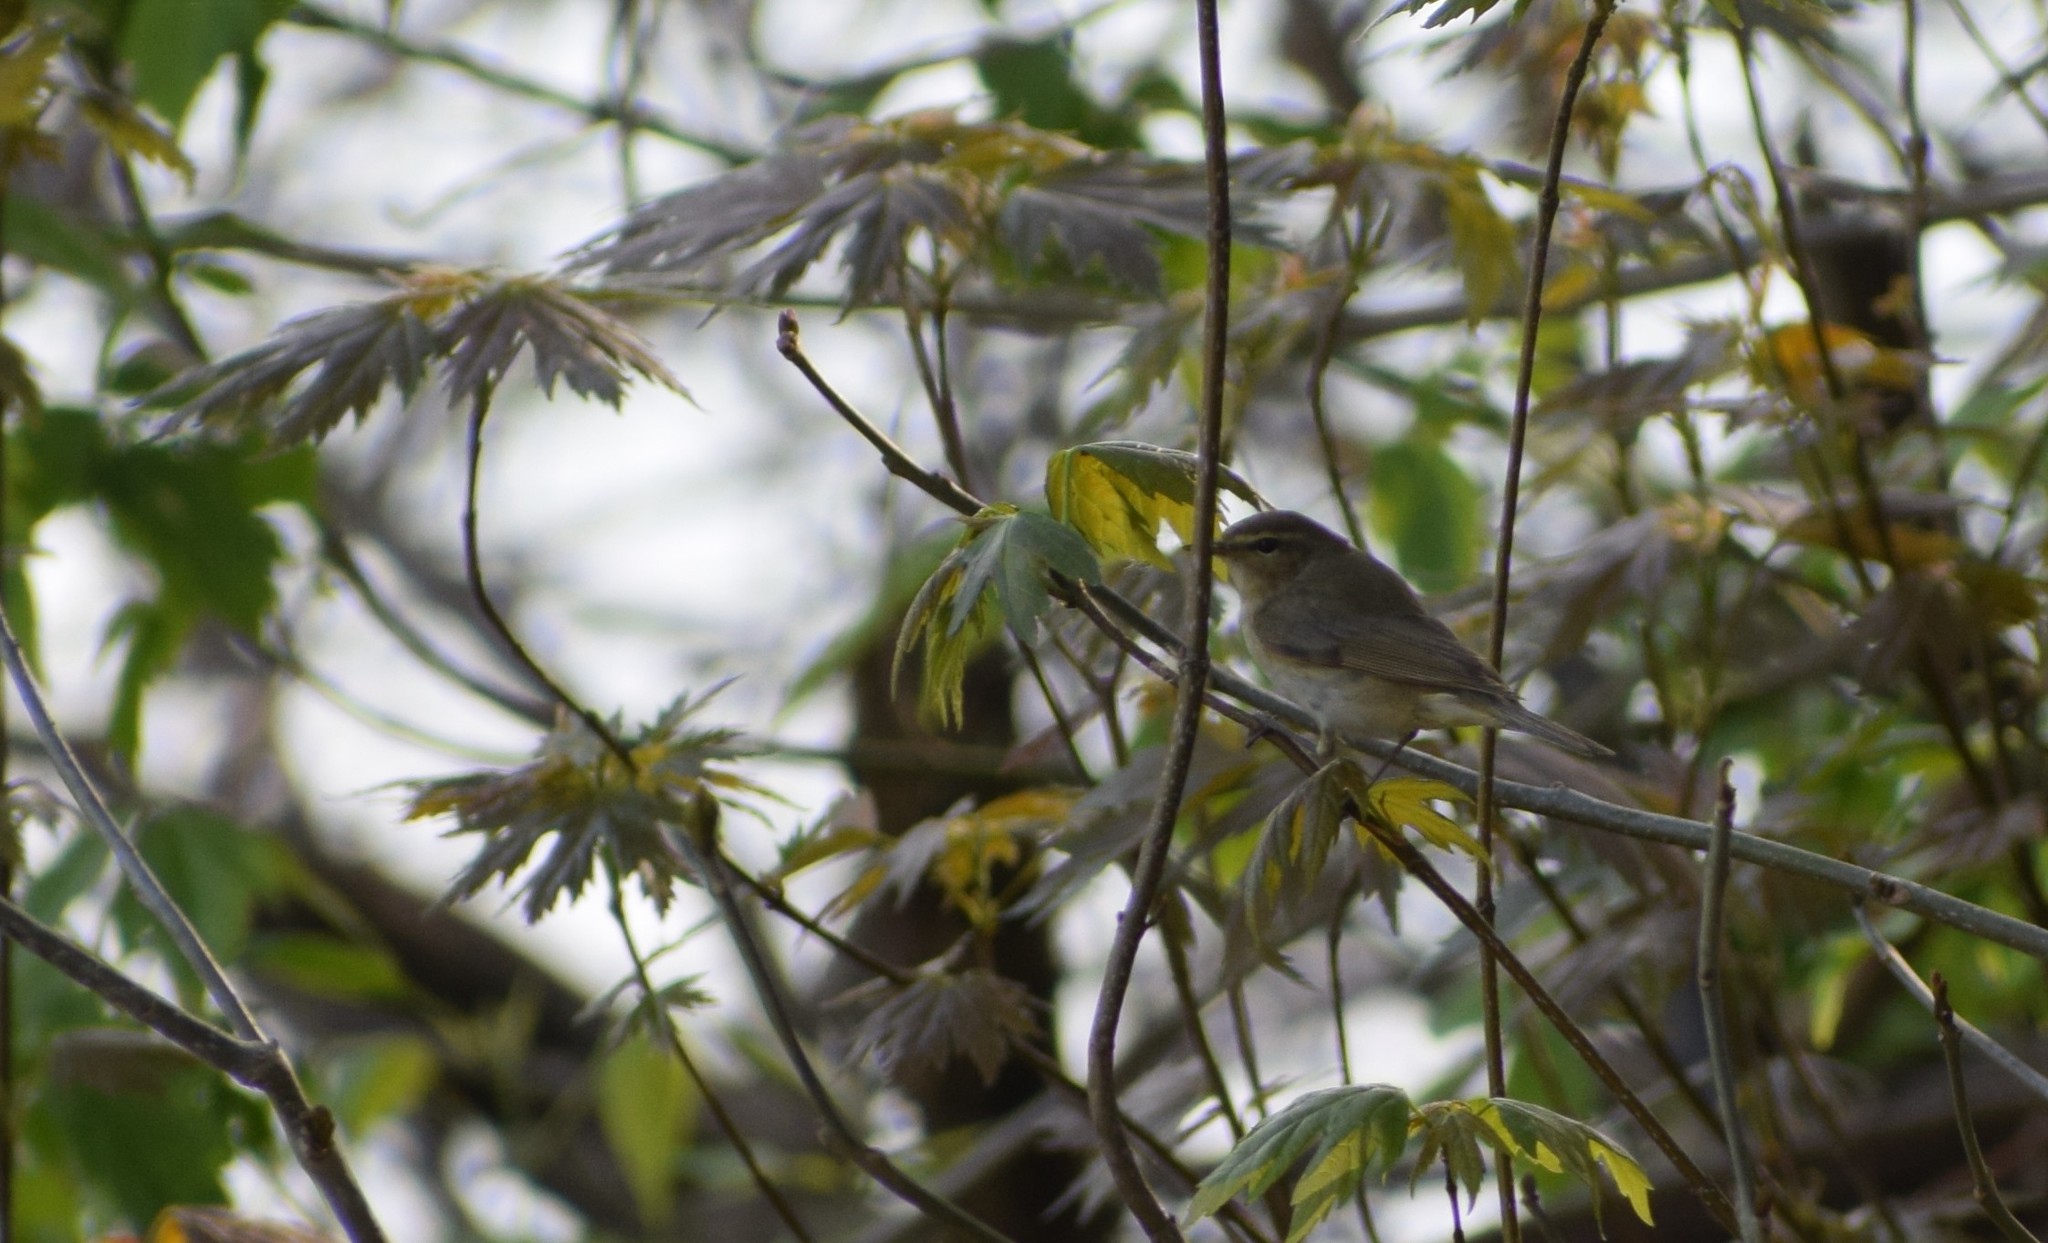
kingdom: Animalia
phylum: Chordata
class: Aves
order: Passeriformes
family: Phylloscopidae
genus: Phylloscopus
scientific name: Phylloscopus collybita
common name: Common chiffchaff
